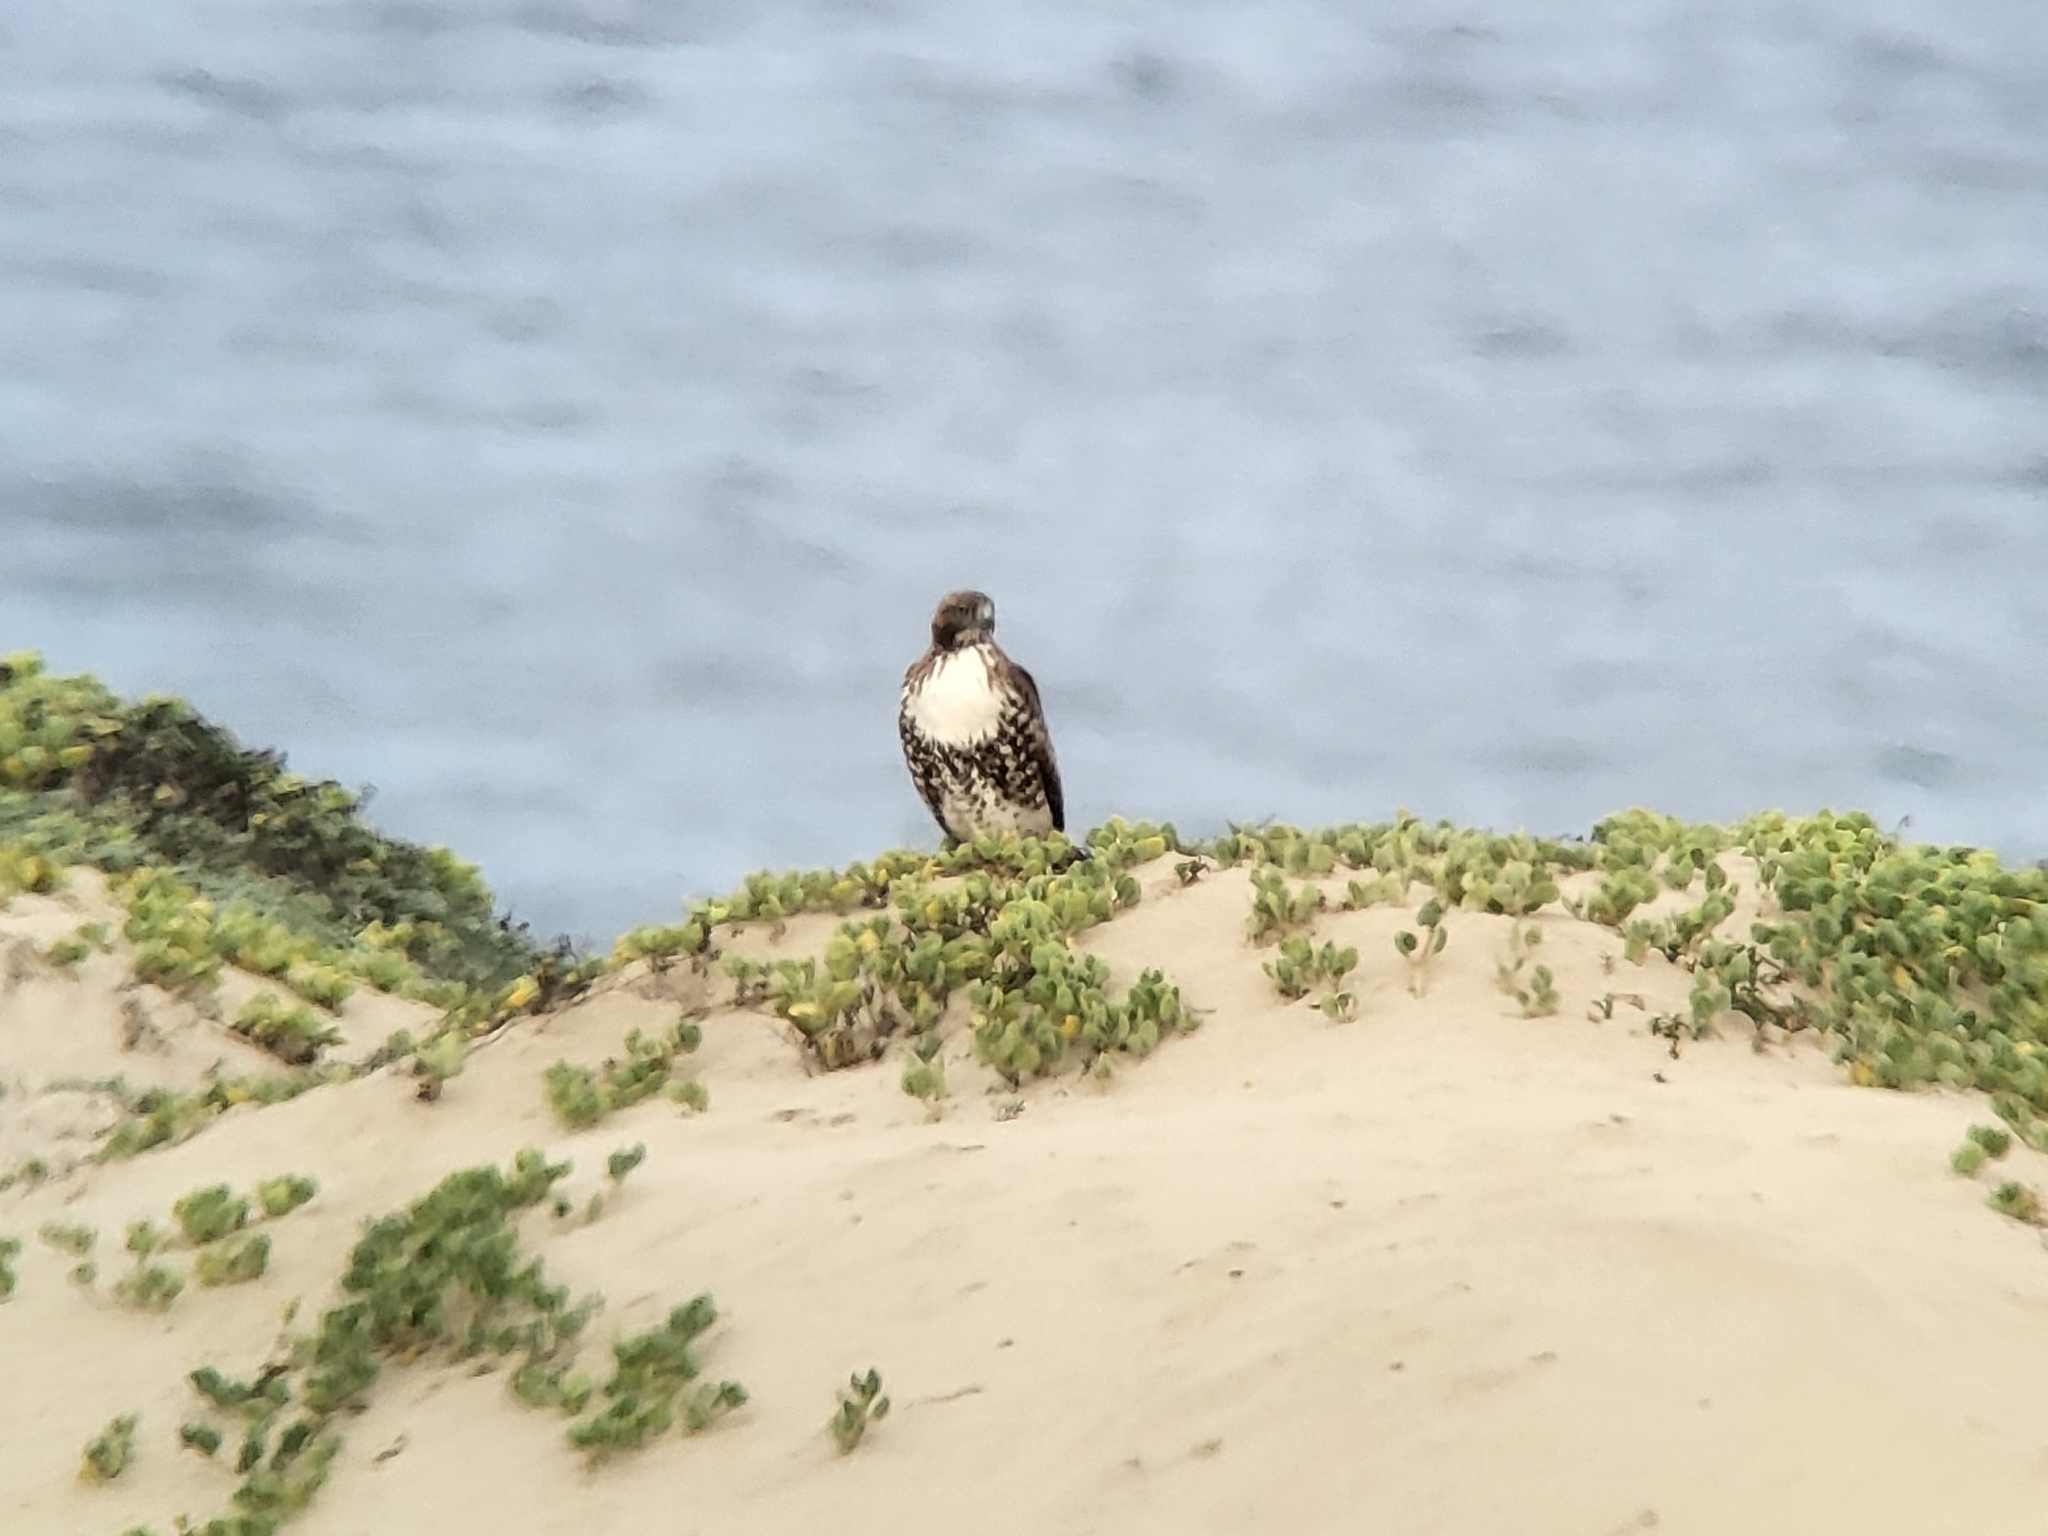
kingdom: Animalia
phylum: Chordata
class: Aves
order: Accipitriformes
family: Accipitridae
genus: Buteo
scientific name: Buteo jamaicensis
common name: Red-tailed hawk
